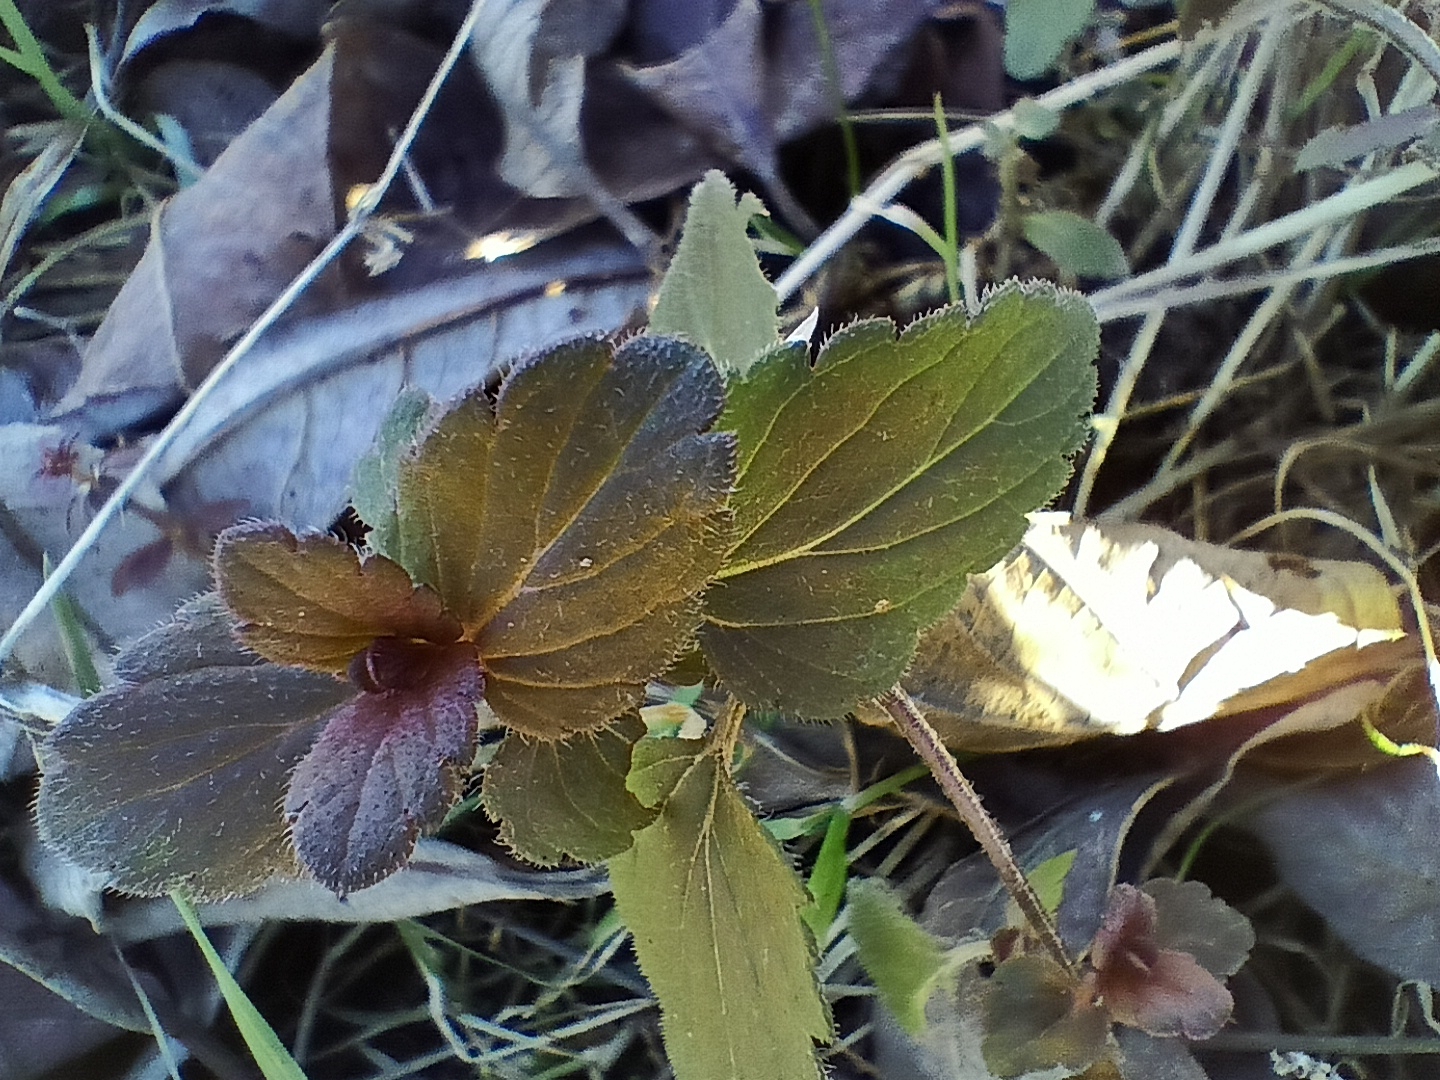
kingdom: Plantae
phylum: Tracheophyta
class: Magnoliopsida
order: Lamiales
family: Plantaginaceae
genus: Veronica
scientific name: Veronica chamaedrys
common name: Germander speedwell
